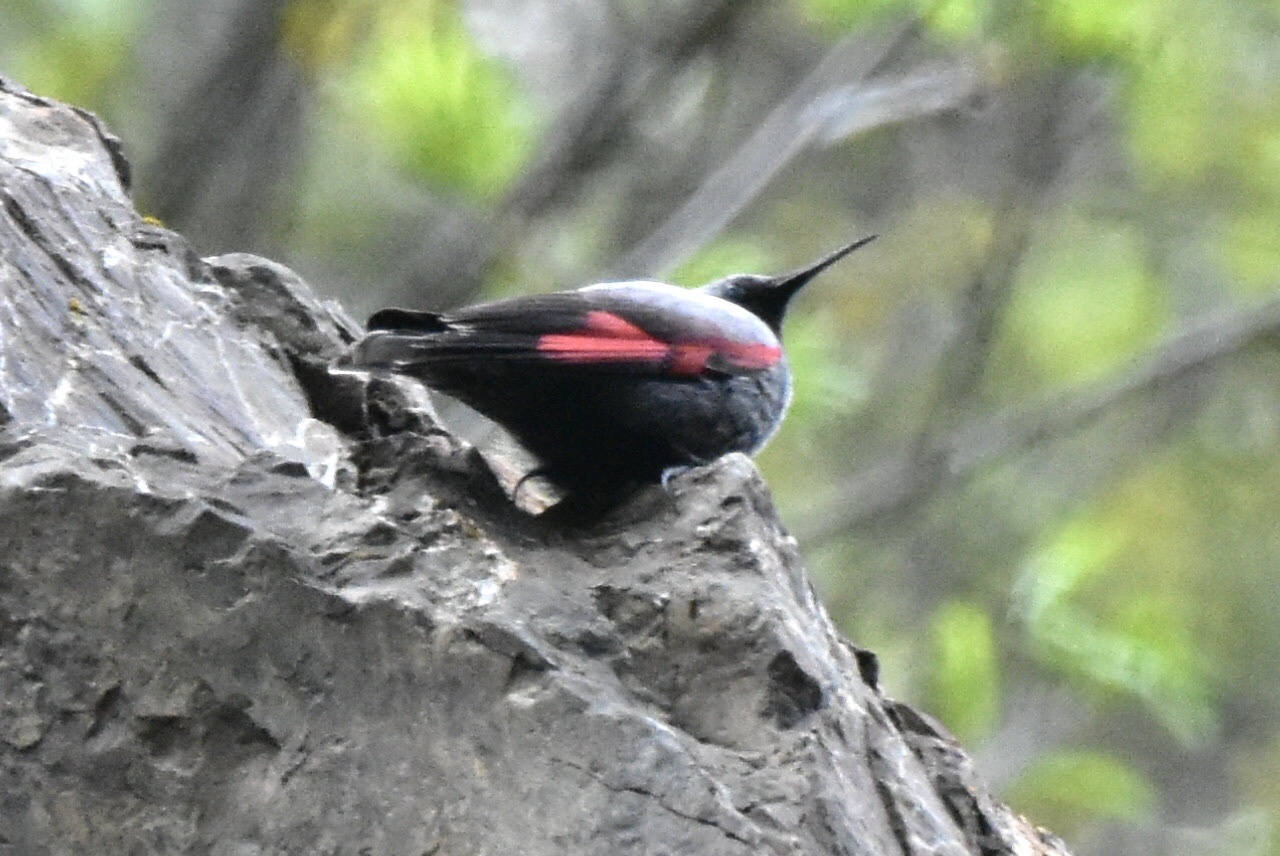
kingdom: Animalia
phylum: Chordata
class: Aves
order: Passeriformes
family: Tichodromidae
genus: Tichodroma
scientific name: Tichodroma muraria
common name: Wallcreeper
